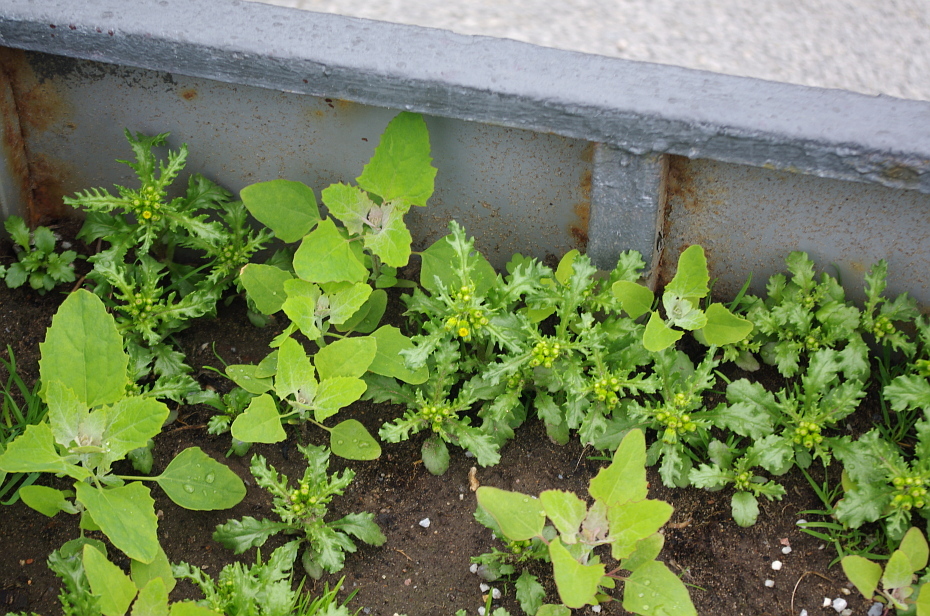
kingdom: Plantae
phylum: Tracheophyta
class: Magnoliopsida
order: Asterales
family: Asteraceae
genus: Senecio
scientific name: Senecio vulgaris
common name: Old-man-in-the-spring
